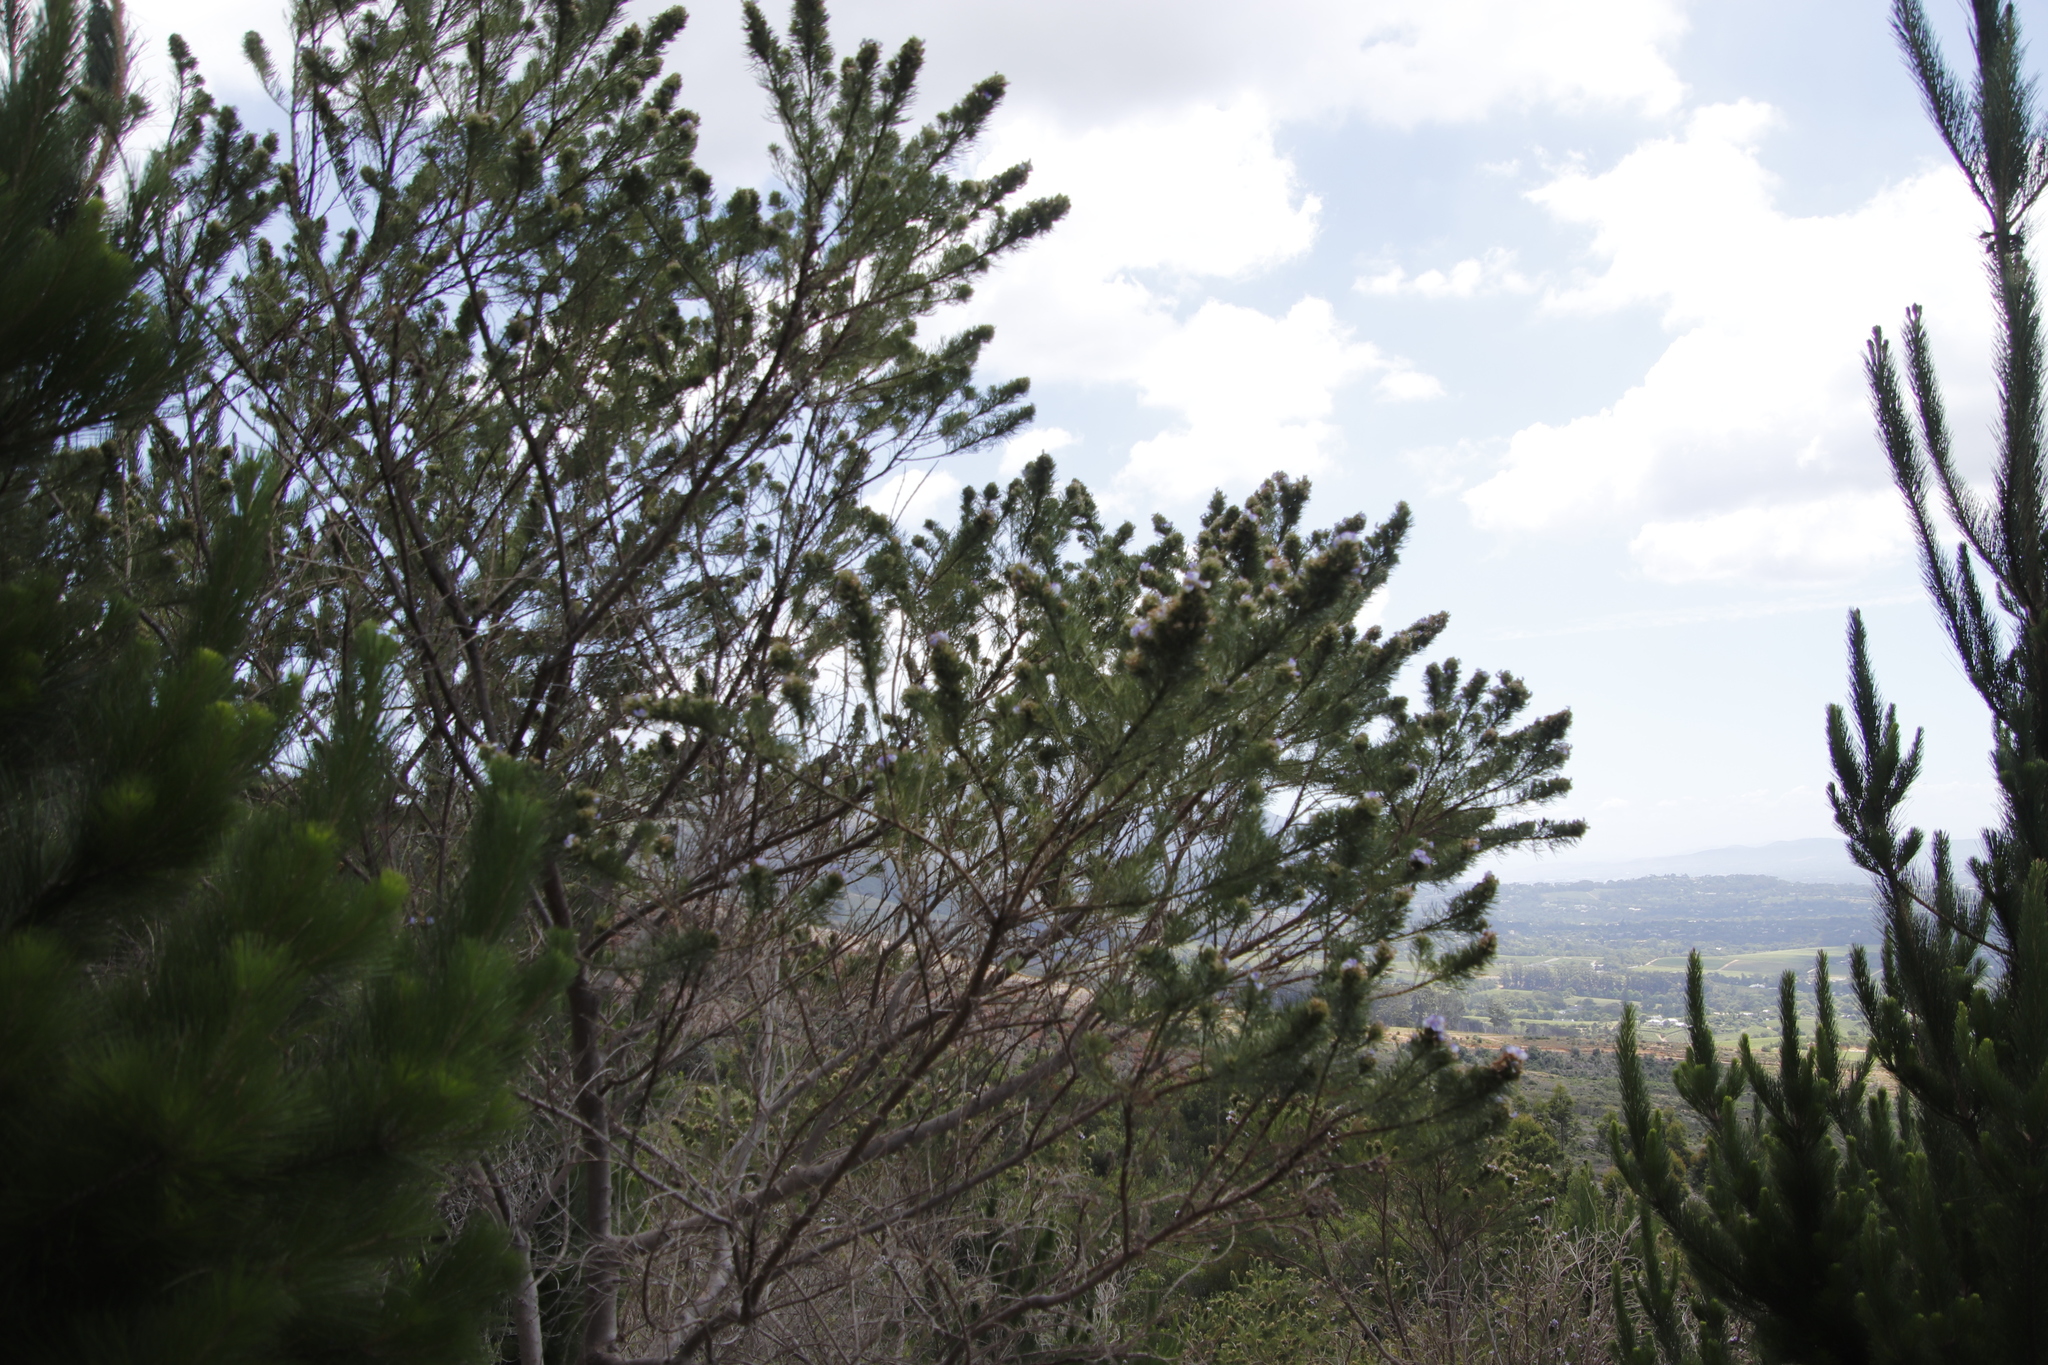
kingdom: Plantae
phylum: Tracheophyta
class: Magnoliopsida
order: Fabales
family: Fabaceae
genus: Psoralea
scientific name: Psoralea pinnata
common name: African scurfpea
